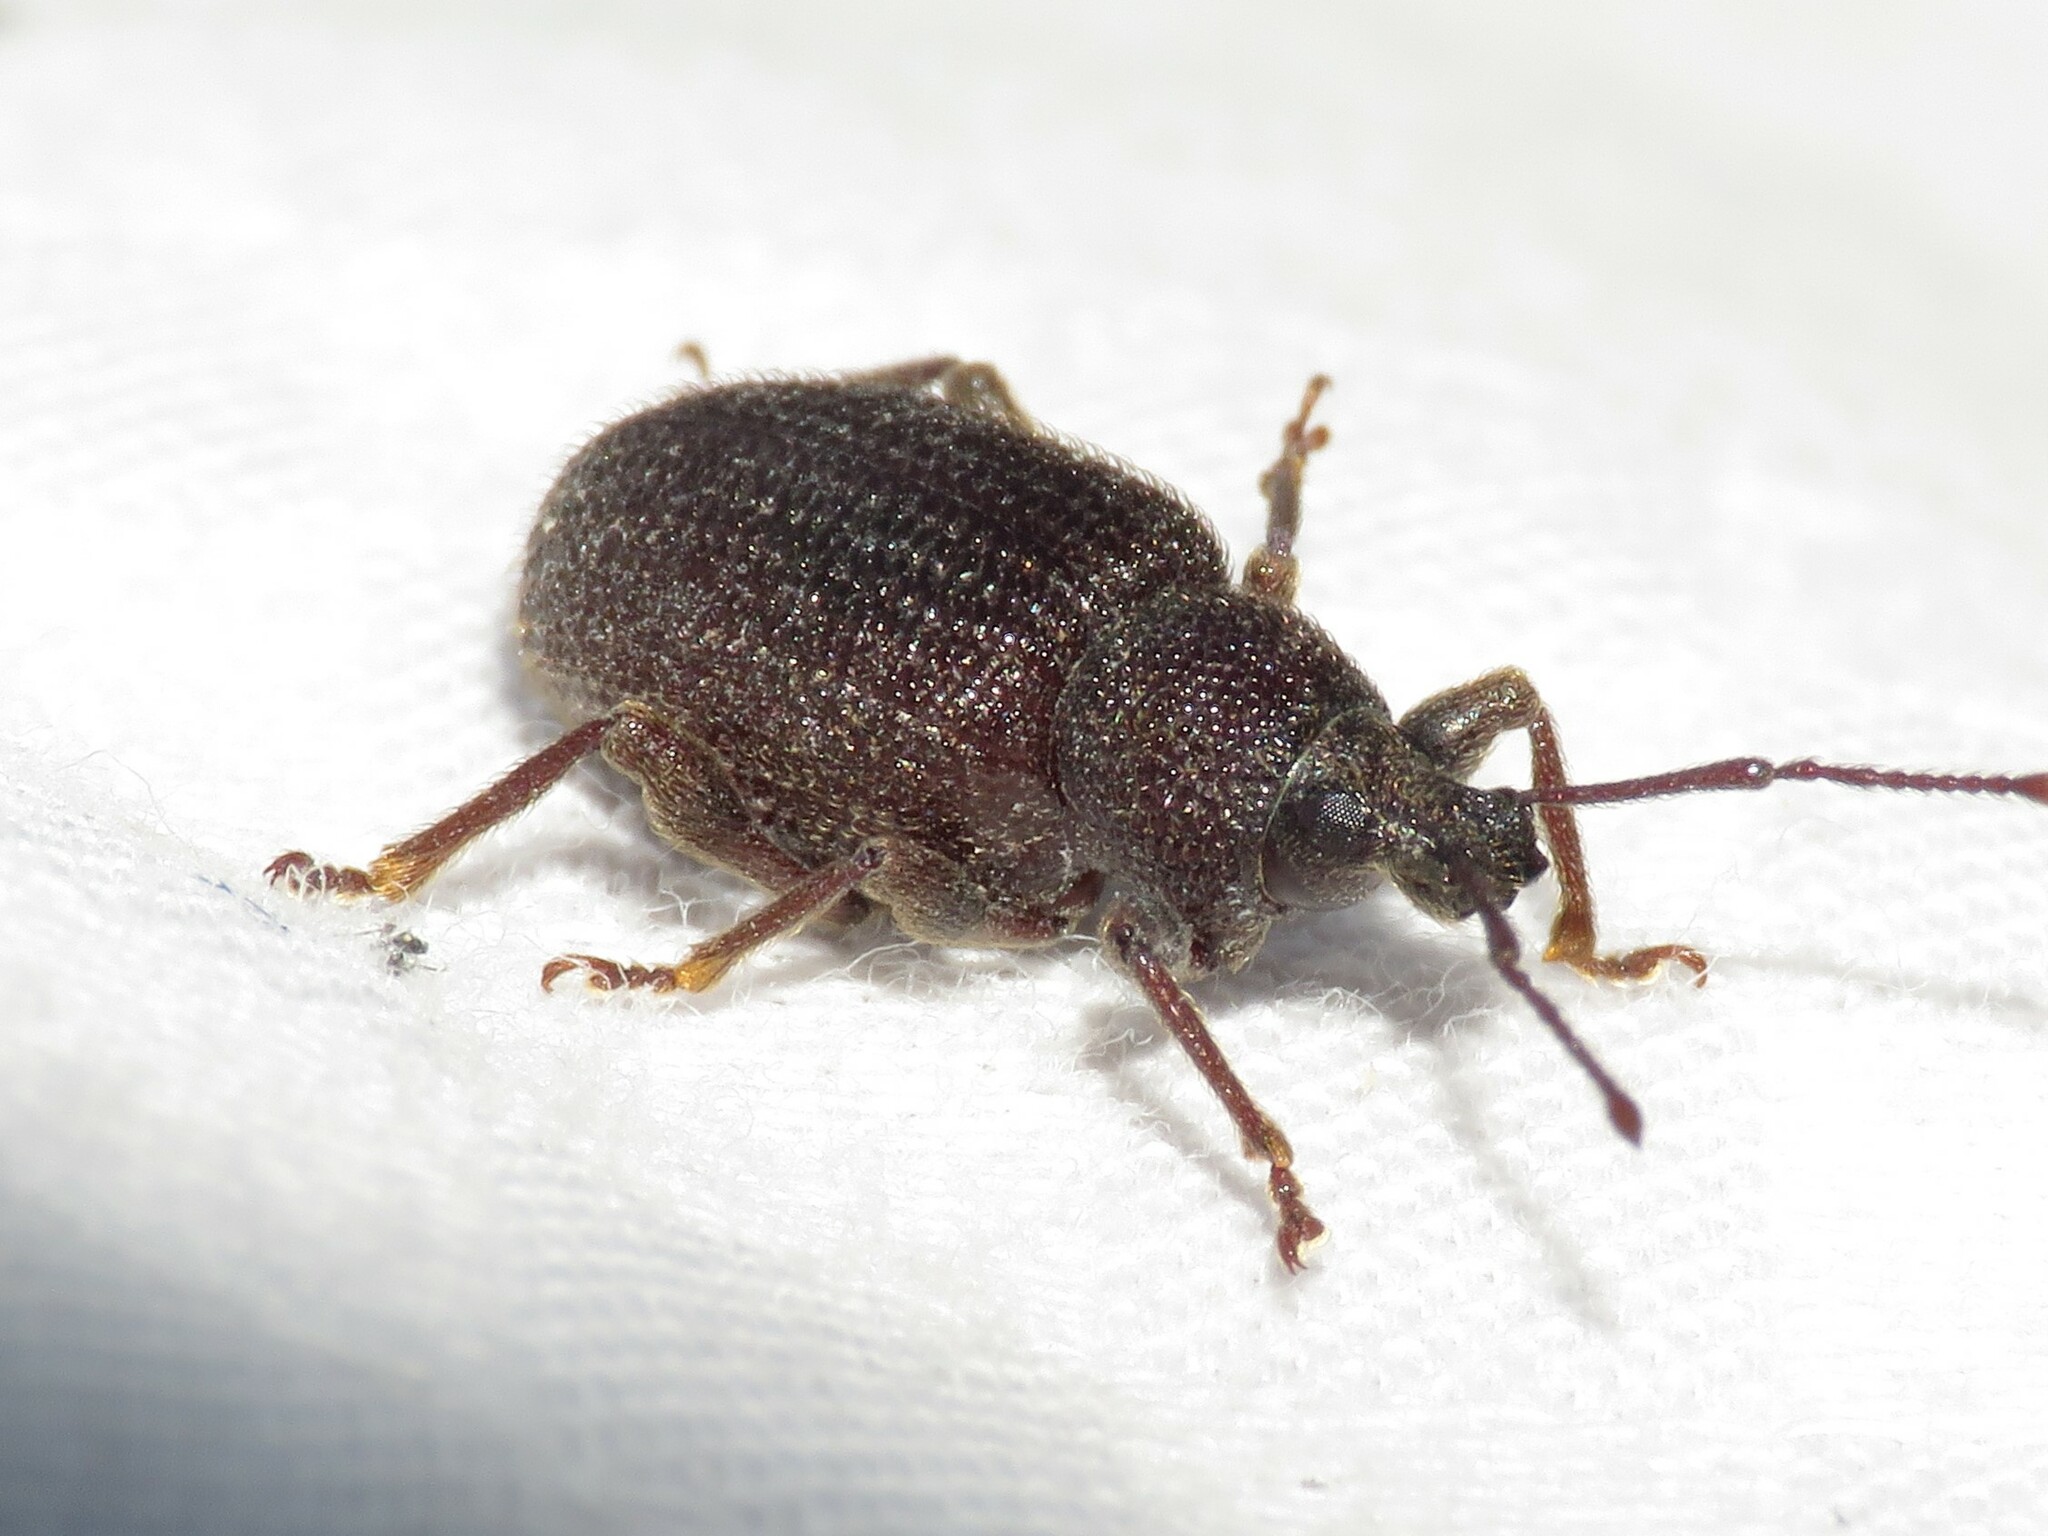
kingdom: Animalia
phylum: Arthropoda
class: Insecta
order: Coleoptera
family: Curculionidae
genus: Otiorhynchus
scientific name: Otiorhynchus rugosostriatus
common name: Weevil
